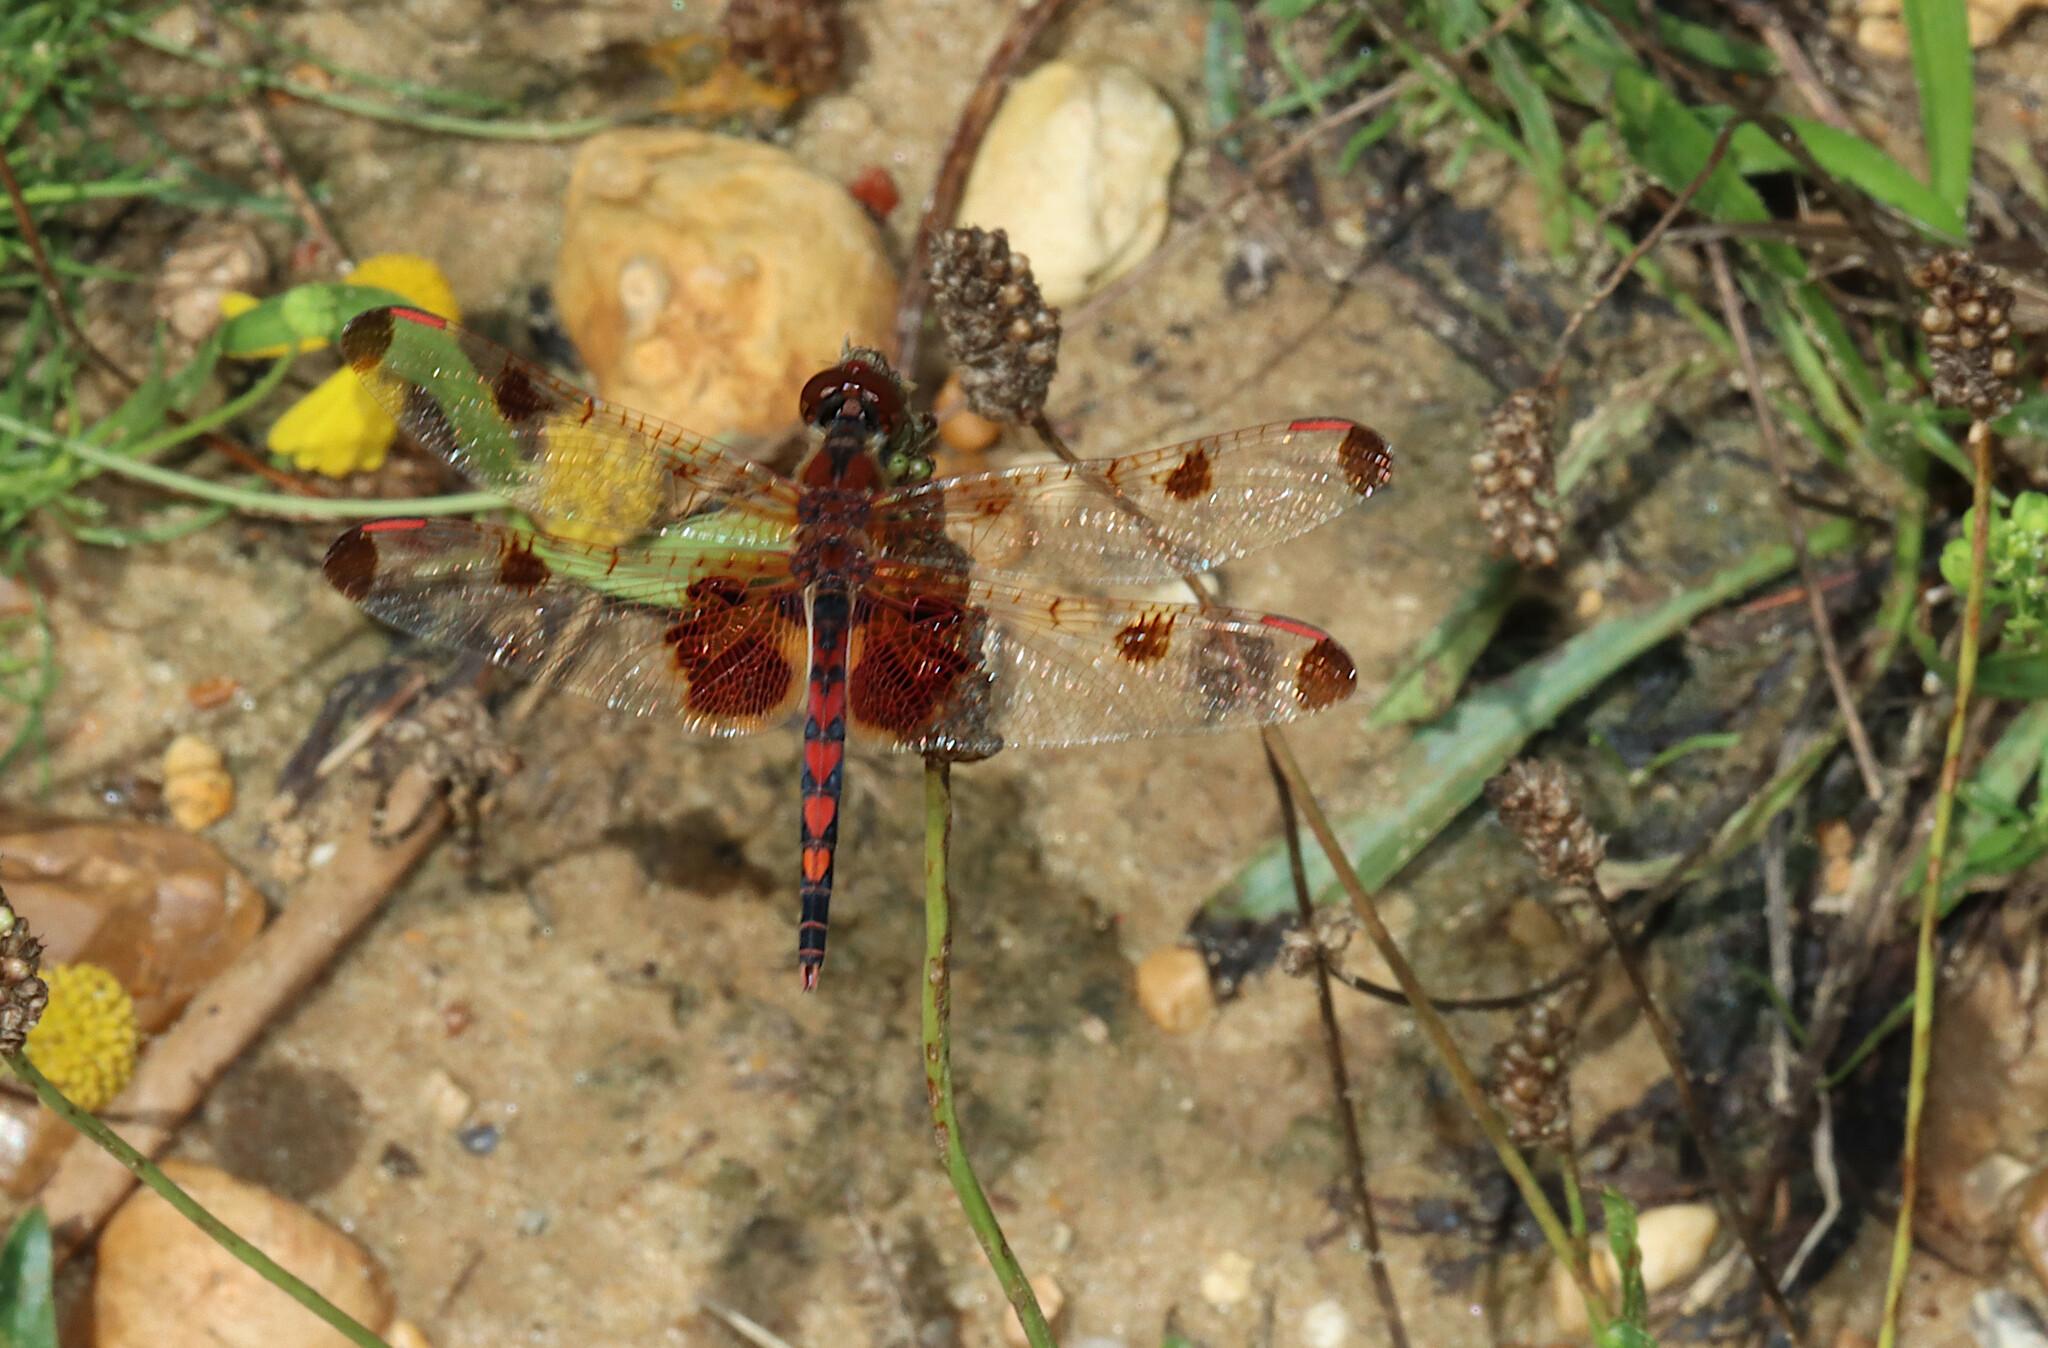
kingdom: Animalia
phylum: Arthropoda
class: Insecta
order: Odonata
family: Libellulidae
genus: Celithemis
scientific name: Celithemis elisa
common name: Calico pennant
